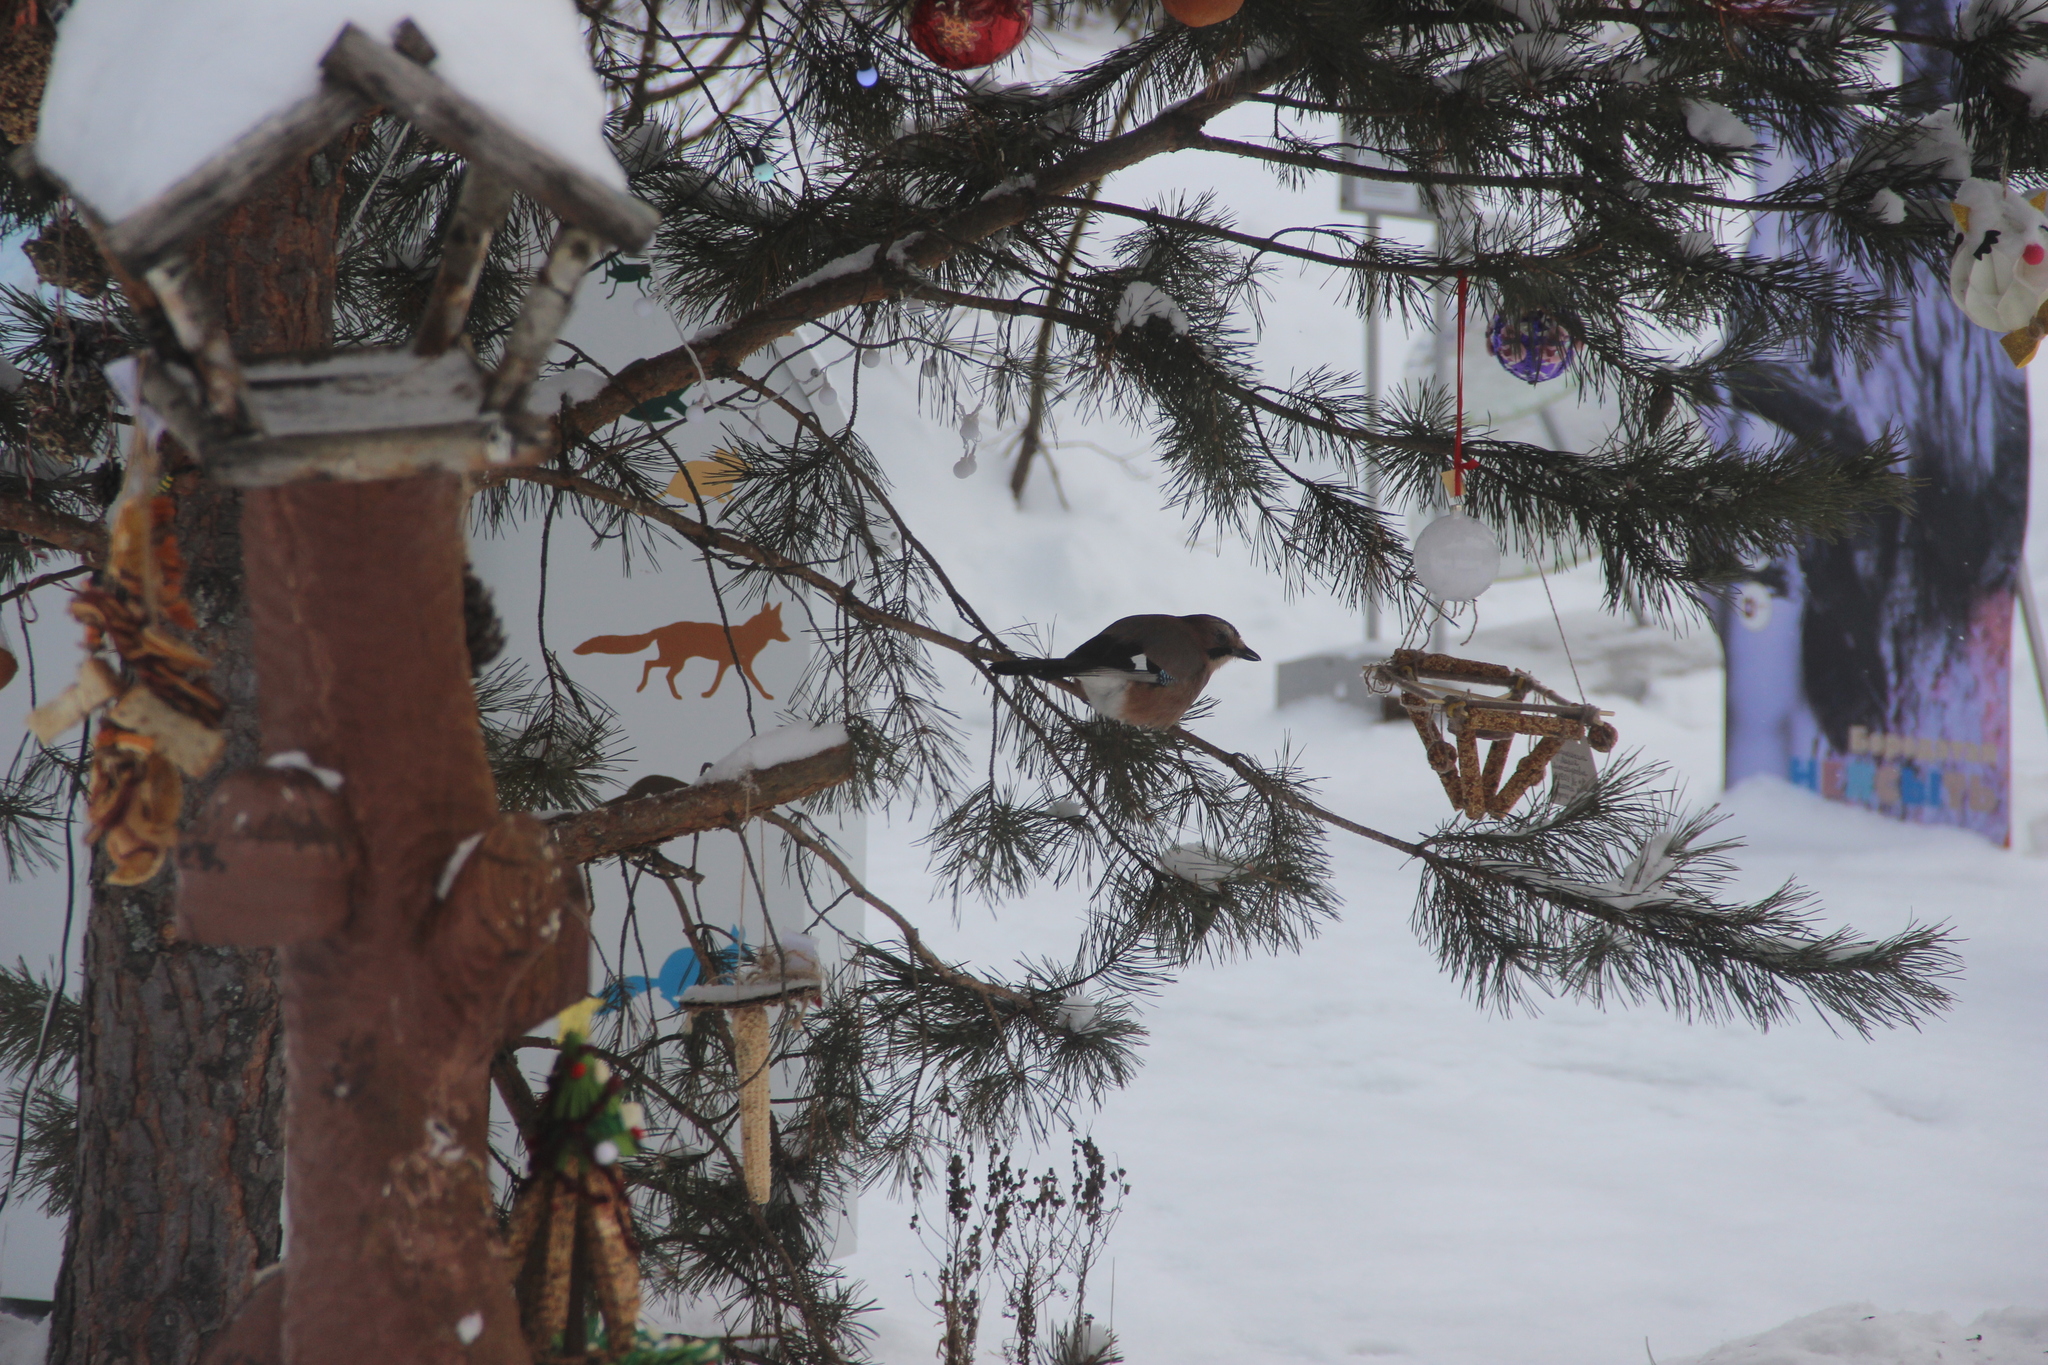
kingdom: Animalia
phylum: Chordata
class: Aves
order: Passeriformes
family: Corvidae
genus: Garrulus
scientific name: Garrulus glandarius
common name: Eurasian jay
